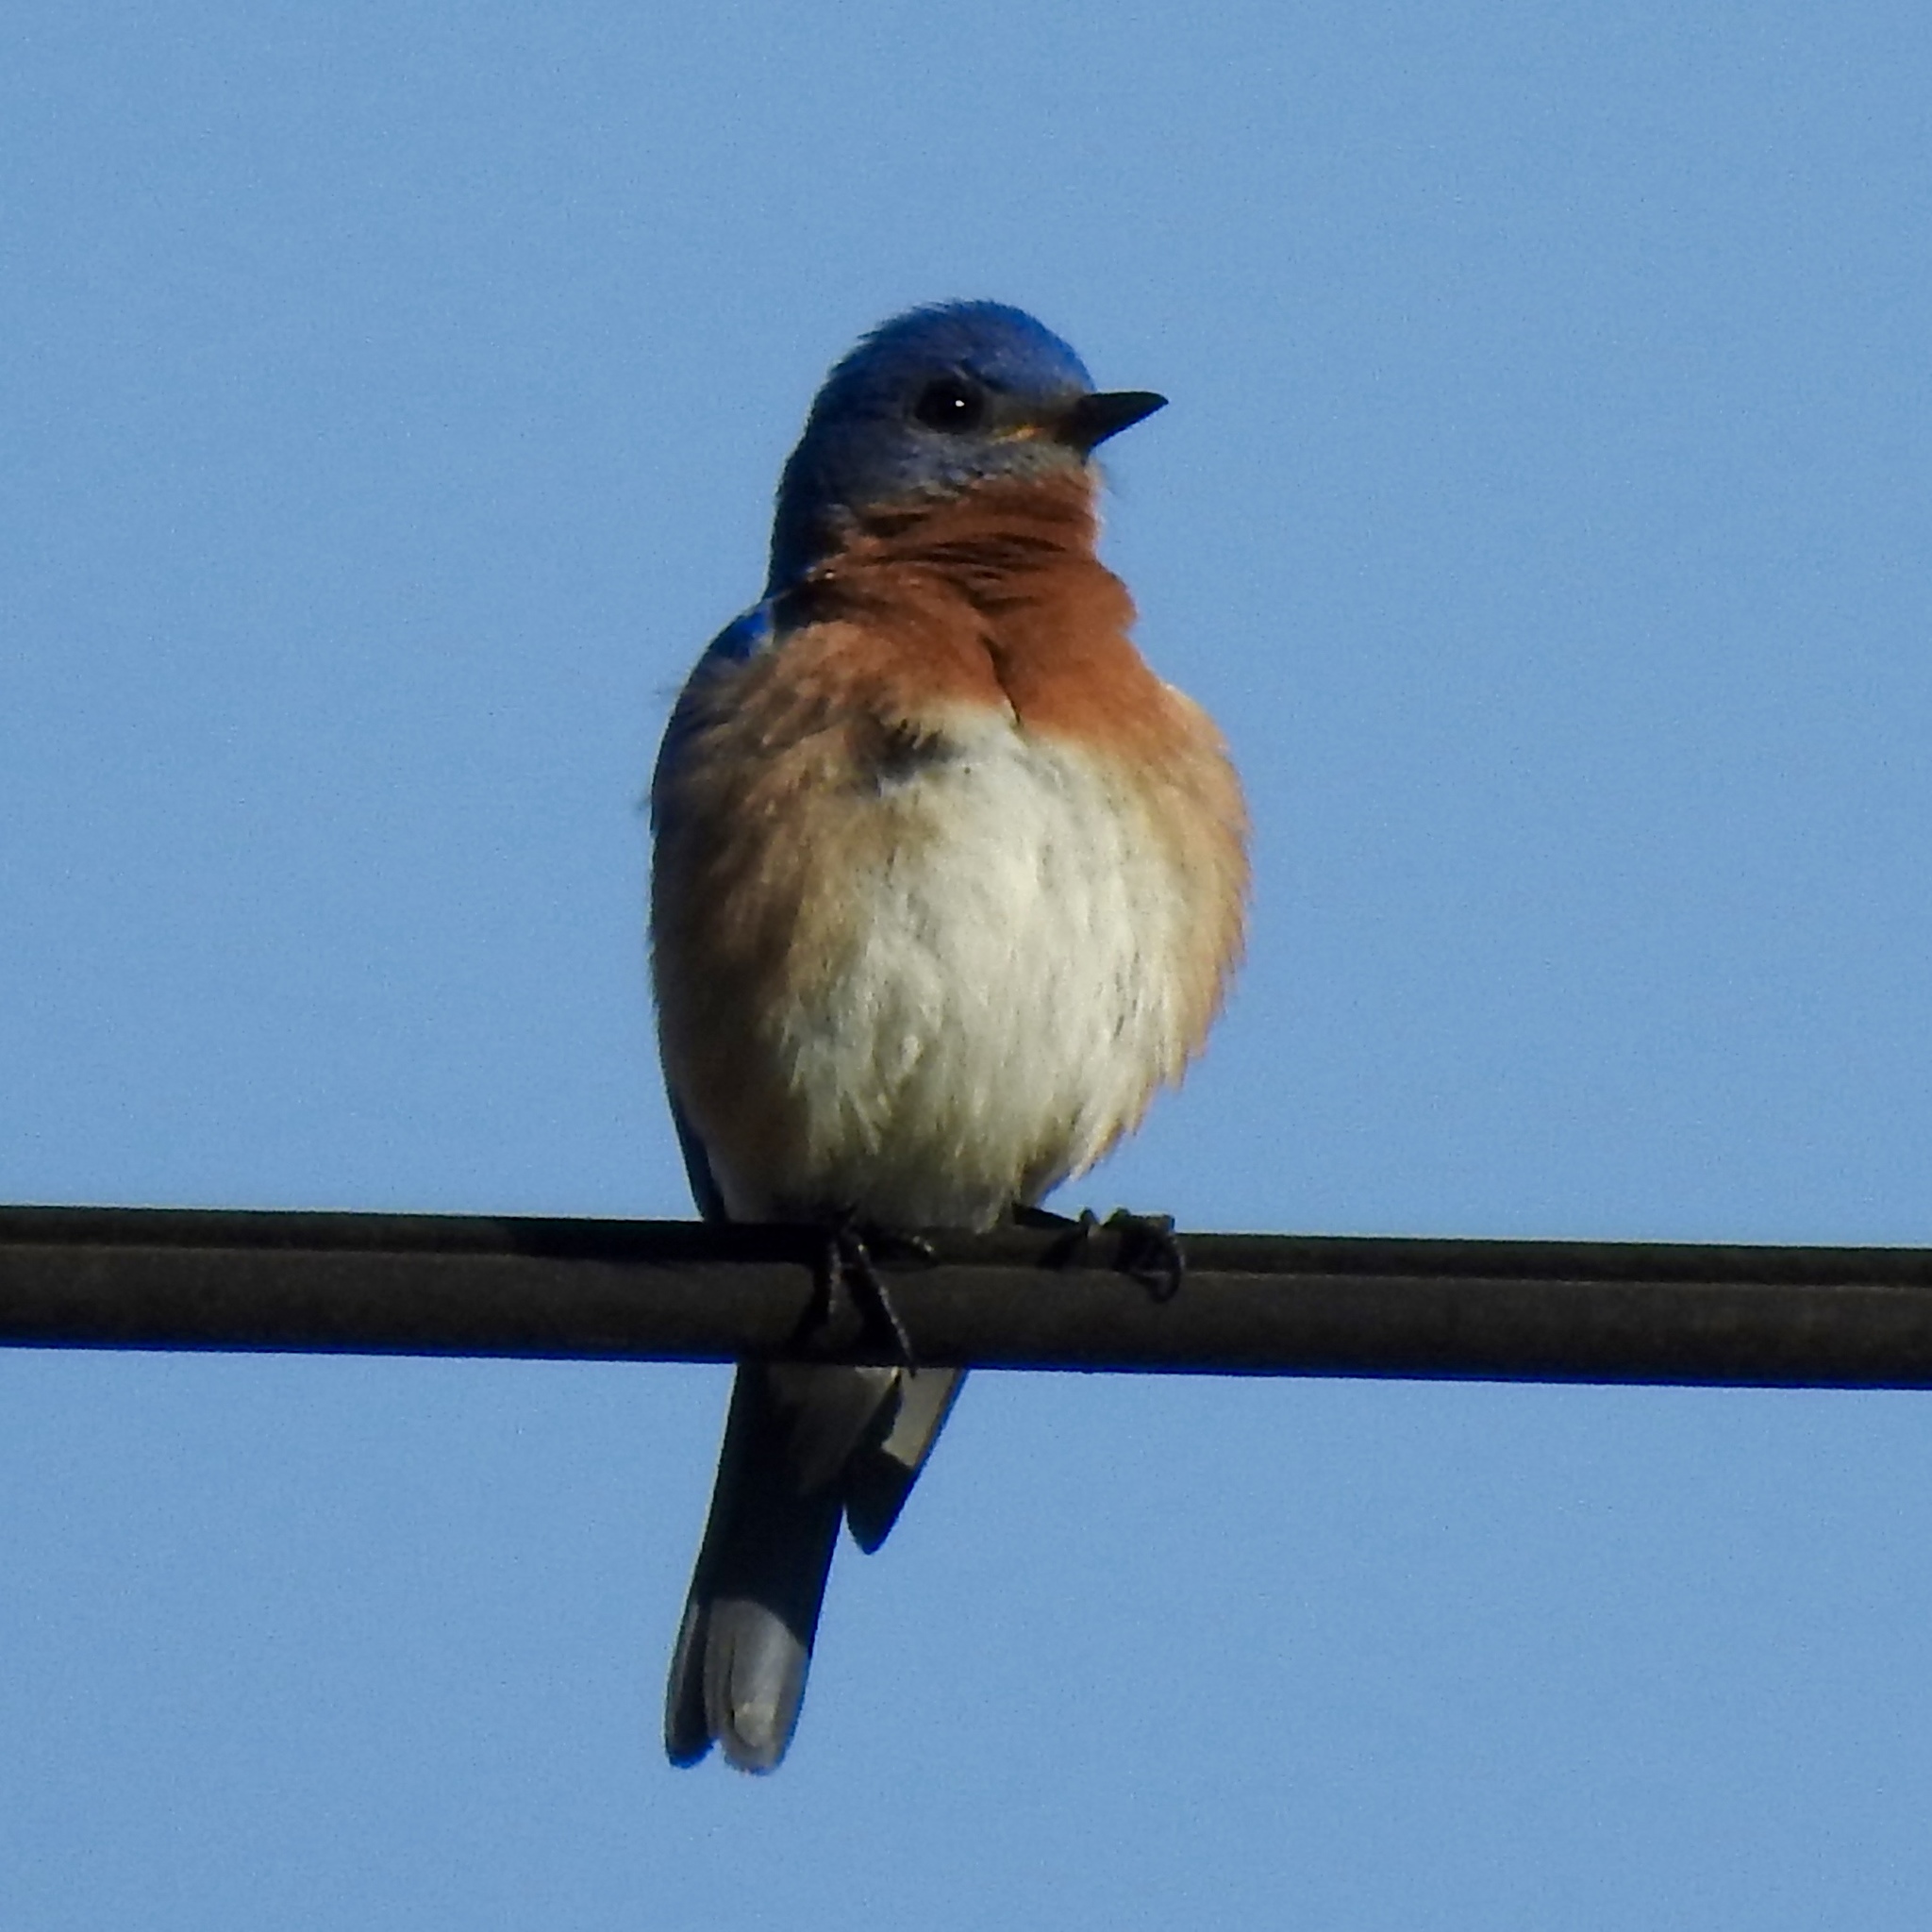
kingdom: Animalia
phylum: Chordata
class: Aves
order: Passeriformes
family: Turdidae
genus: Sialia
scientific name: Sialia sialis
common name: Eastern bluebird
